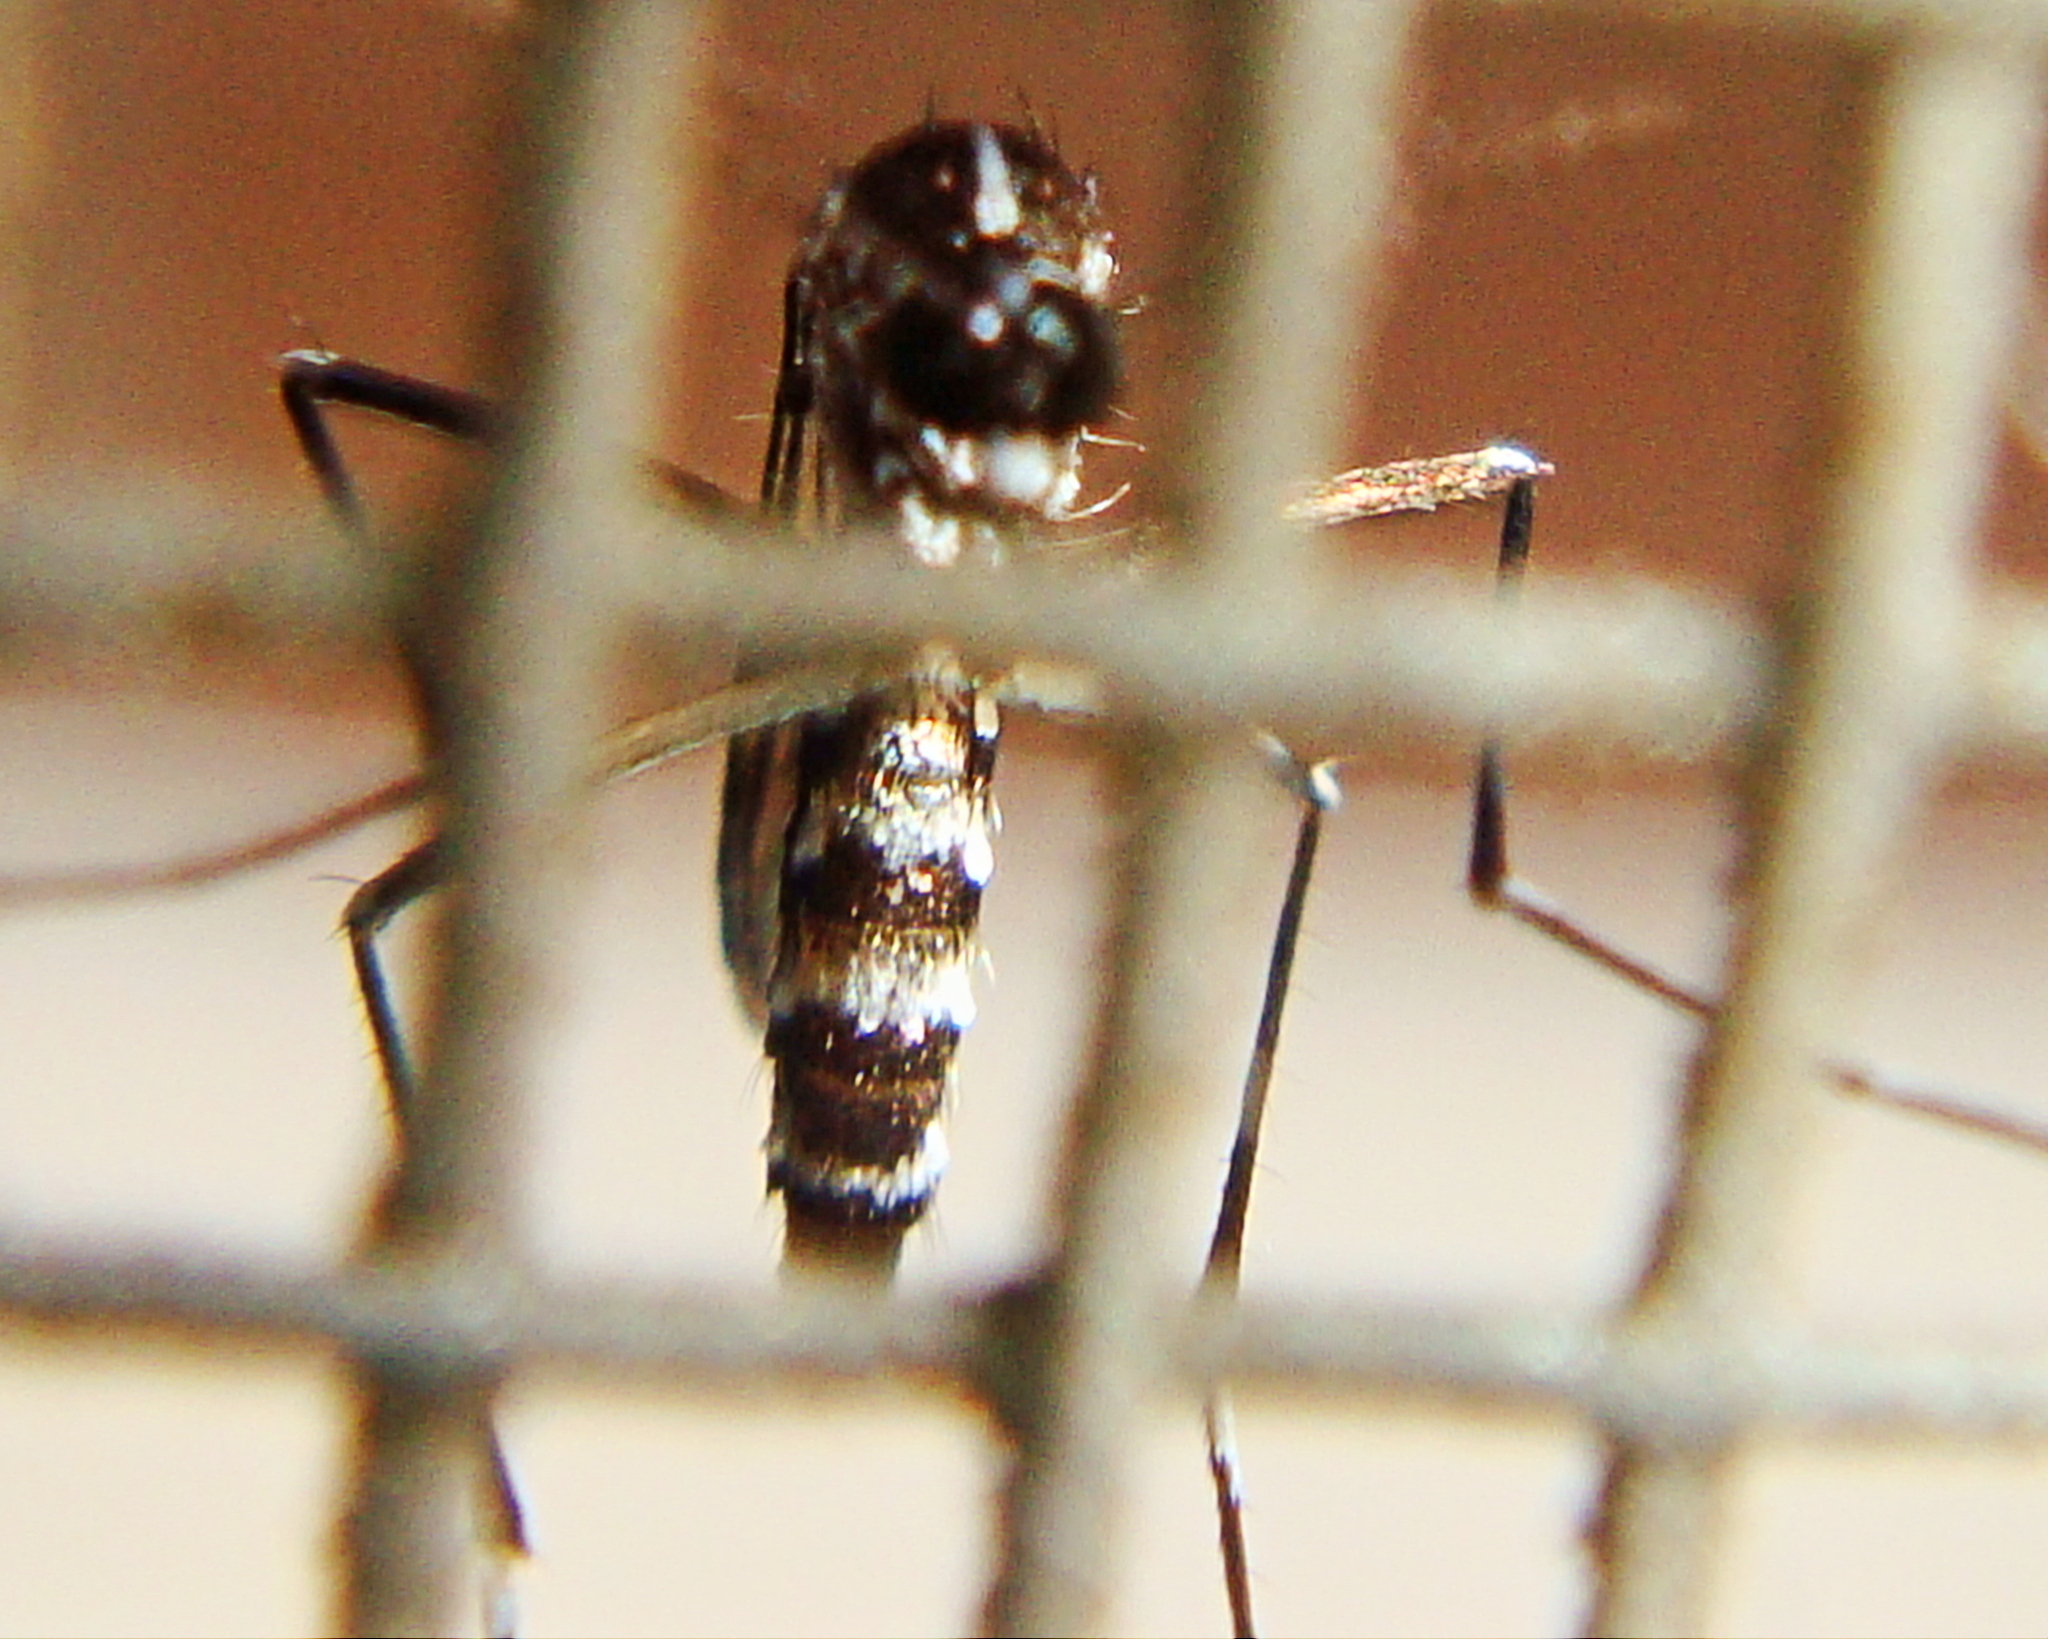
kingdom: Animalia
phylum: Arthropoda
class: Insecta
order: Diptera
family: Culicidae
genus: Aedes
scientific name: Aedes albopictus
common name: Tiger mosquito
